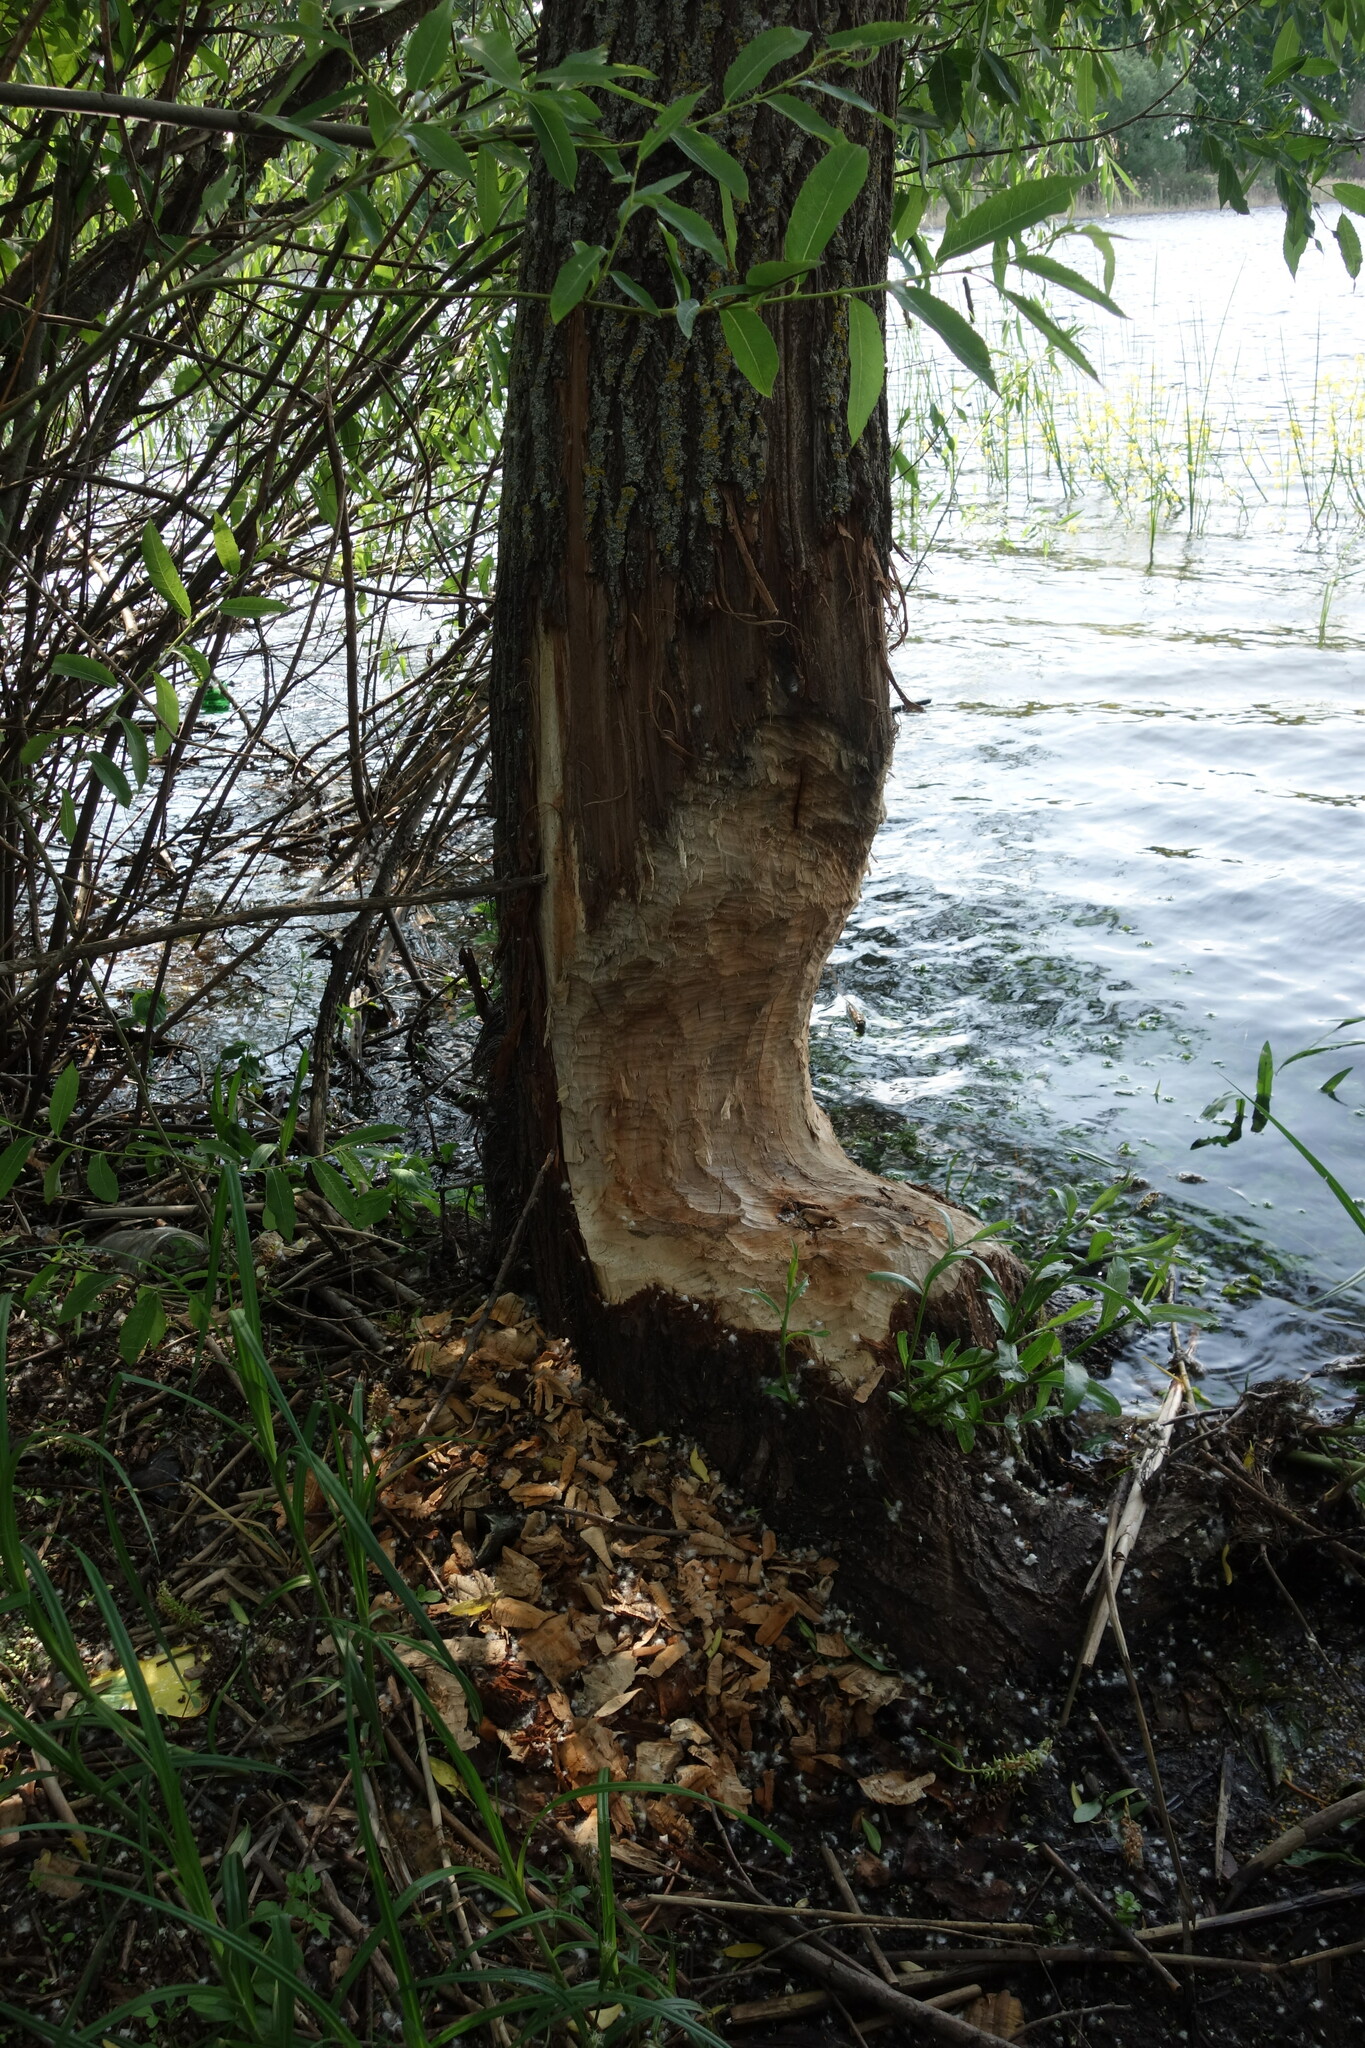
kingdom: Animalia
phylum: Chordata
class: Mammalia
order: Rodentia
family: Castoridae
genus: Castor
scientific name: Castor fiber
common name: Eurasian beaver
